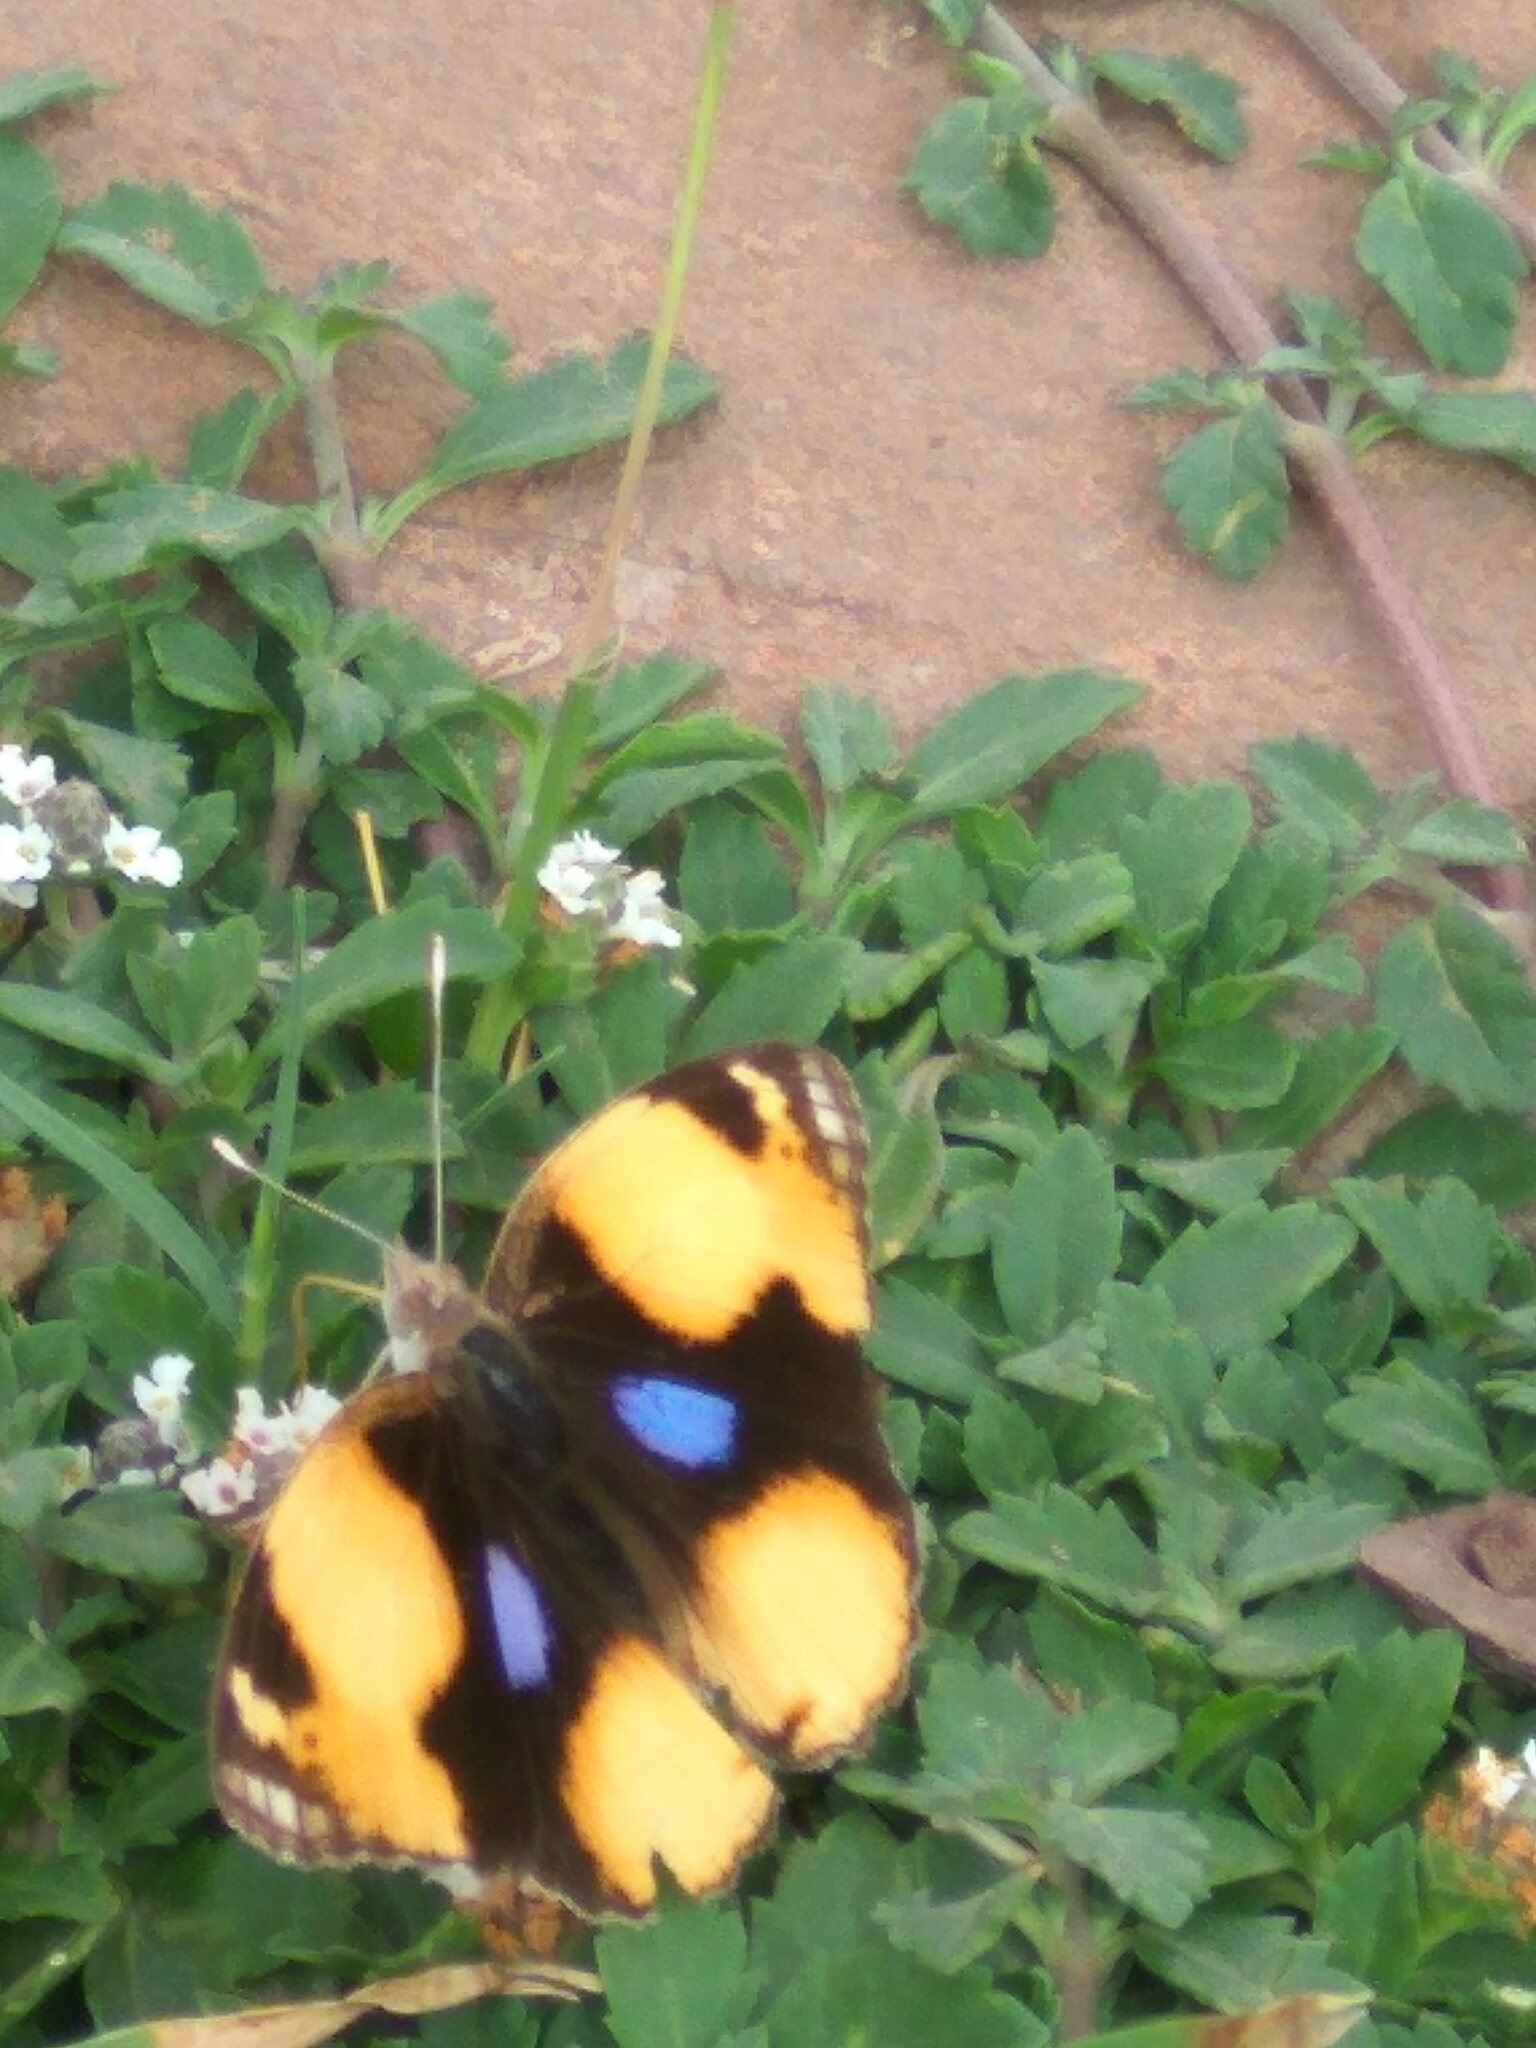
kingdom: Animalia
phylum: Arthropoda
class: Insecta
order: Lepidoptera
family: Nymphalidae
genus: Junonia
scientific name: Junonia hierta
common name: Yellow pansy
